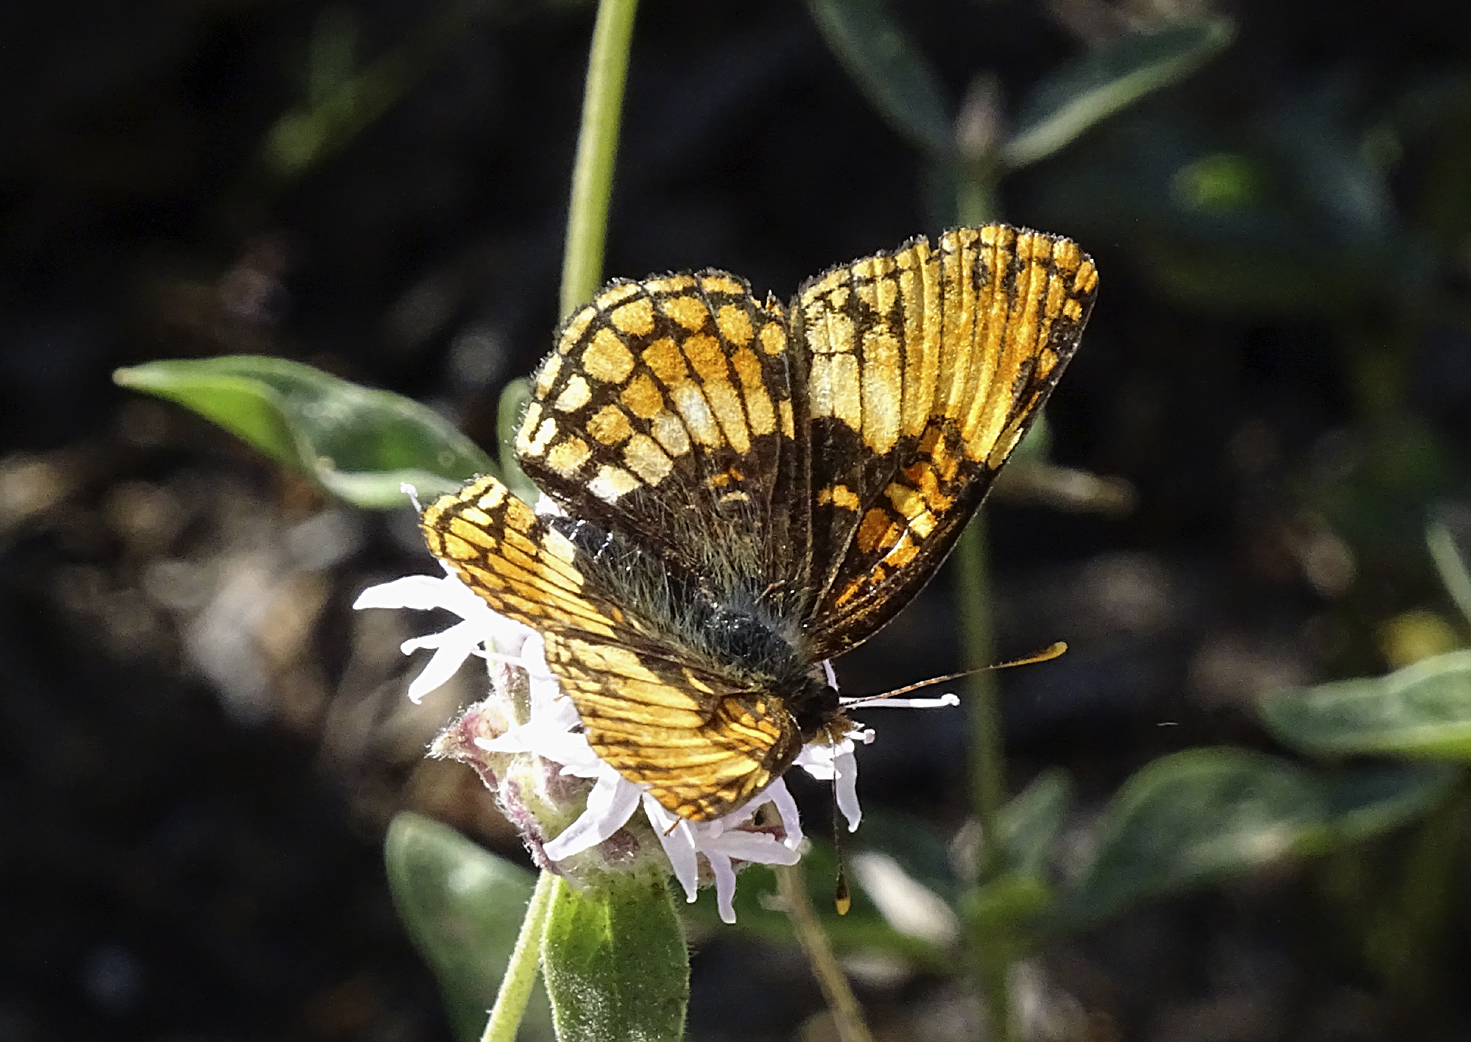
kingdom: Animalia
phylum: Arthropoda
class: Insecta
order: Lepidoptera
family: Nymphalidae
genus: Chlosyne
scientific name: Chlosyne hoffmanni
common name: Hoffmann's checkerspot
